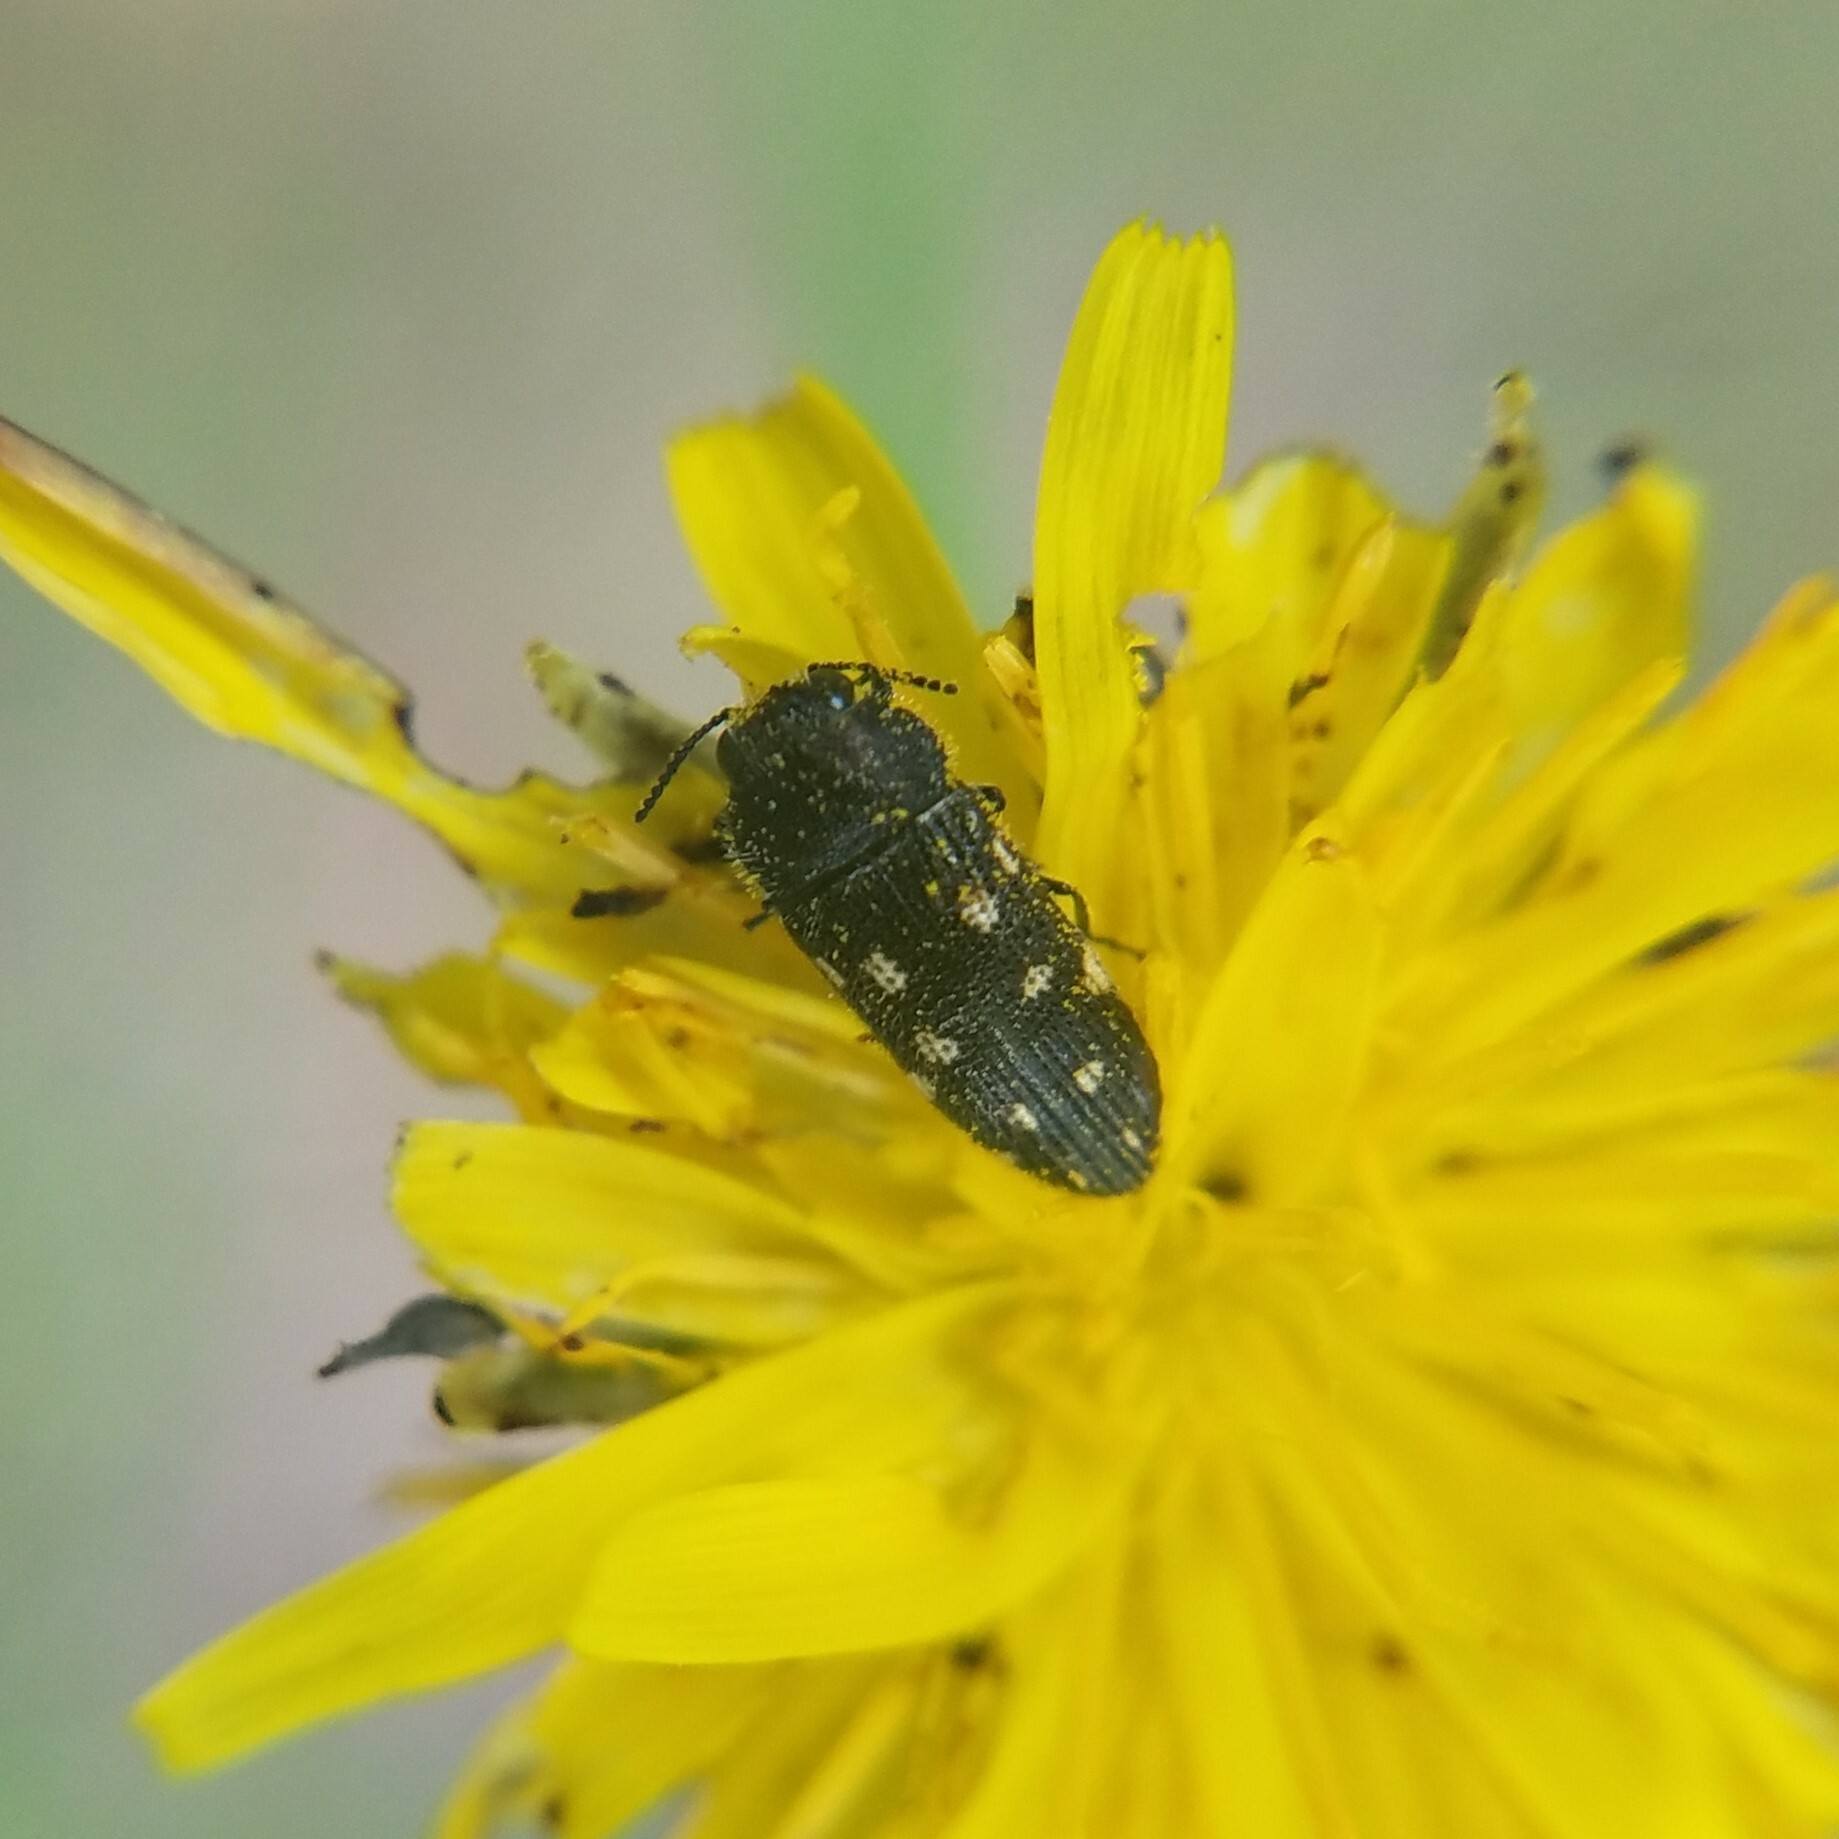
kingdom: Animalia
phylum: Arthropoda
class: Insecta
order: Coleoptera
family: Buprestidae
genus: Acmaeodera
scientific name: Acmaeodera tubulus
